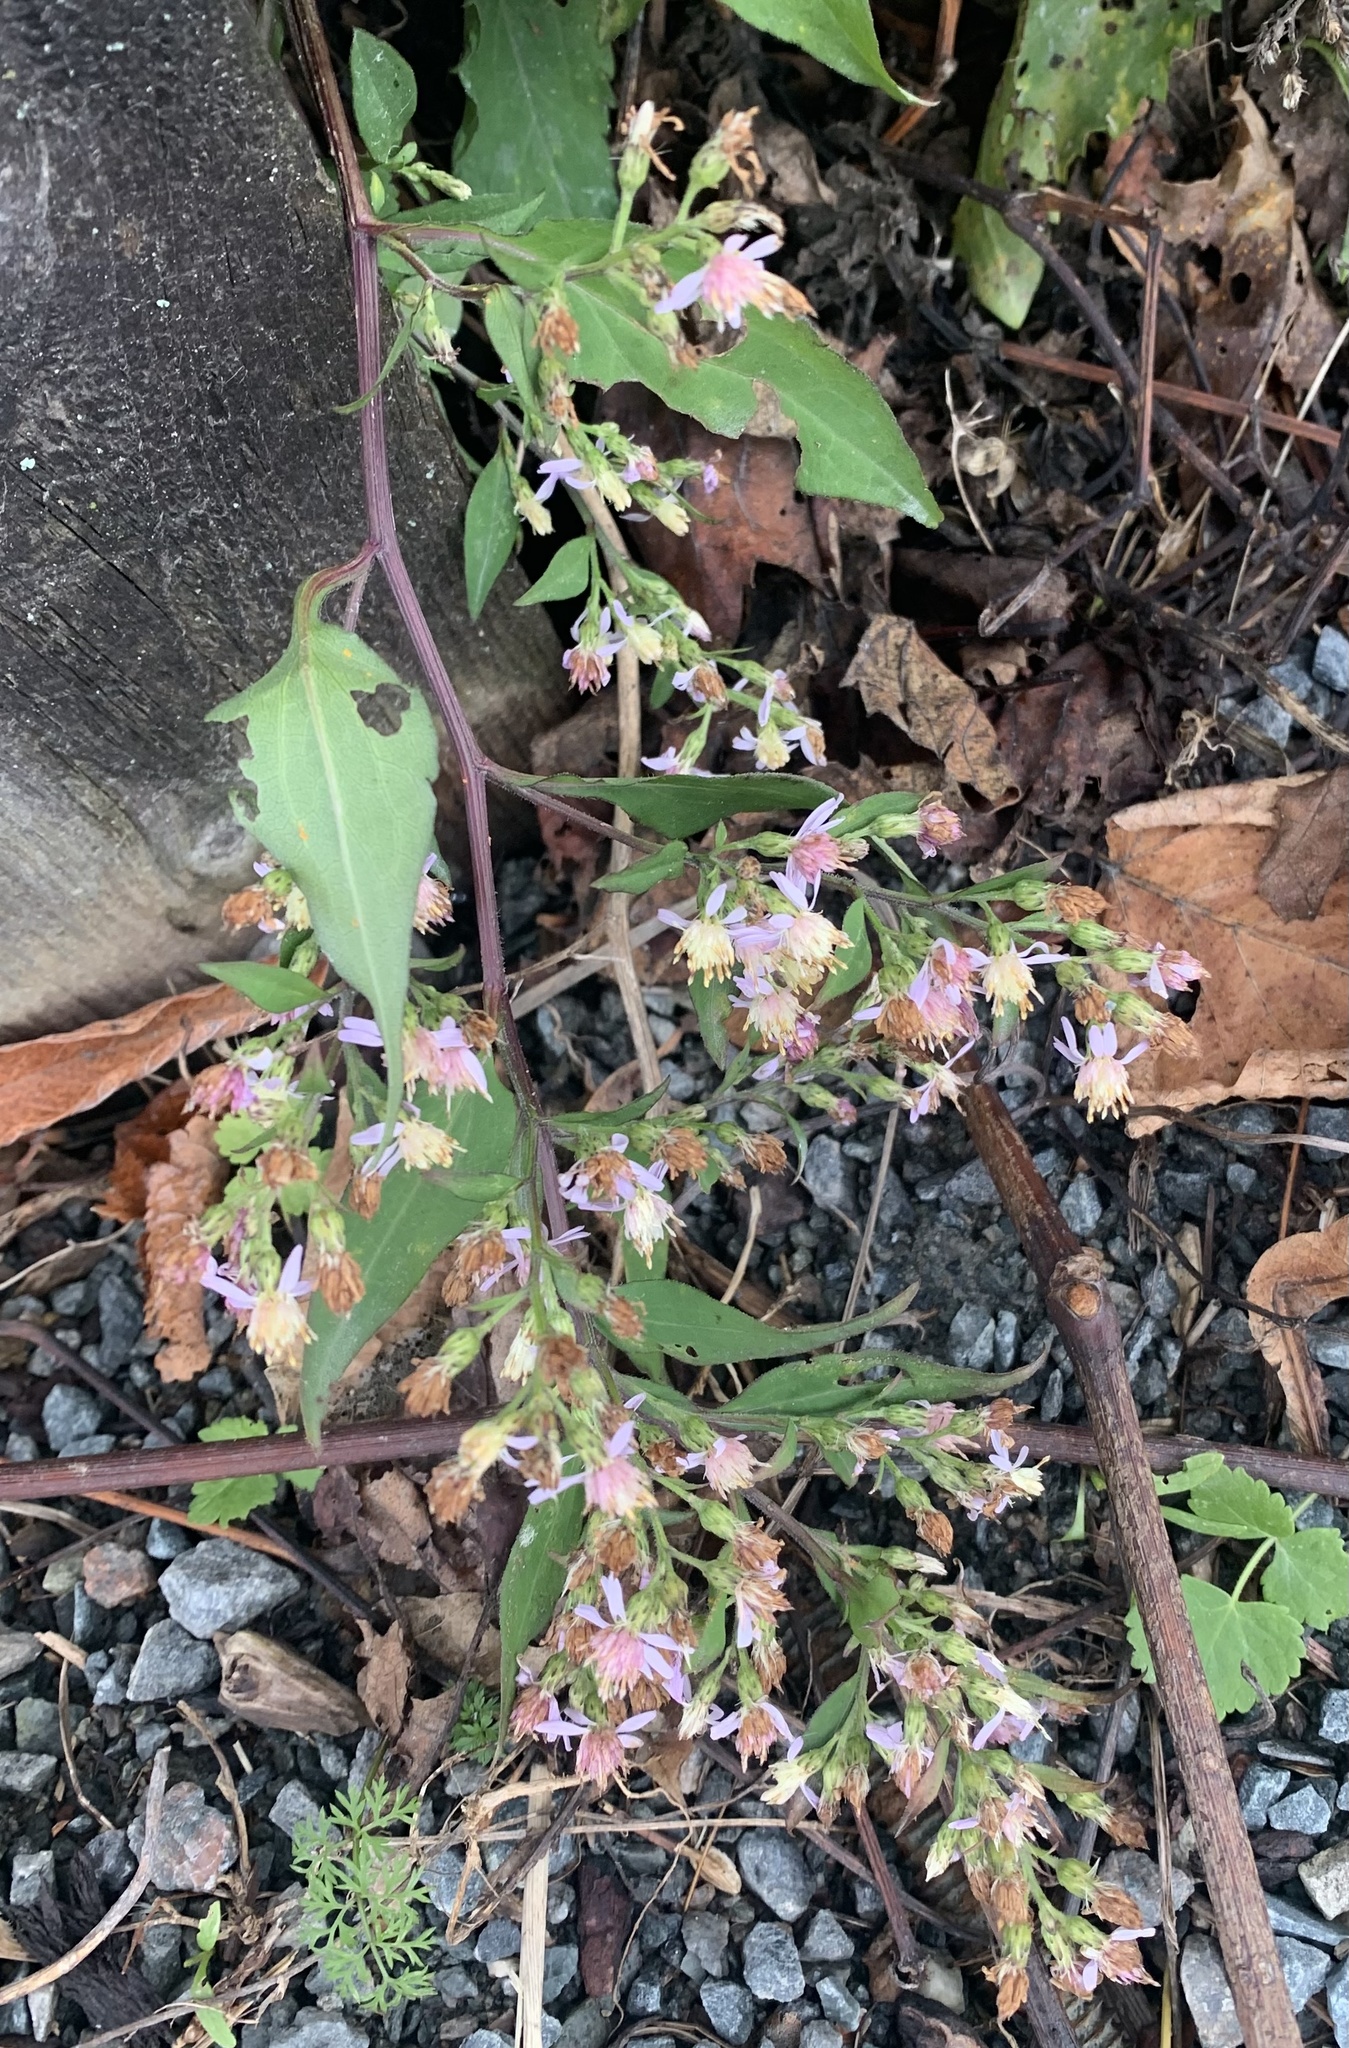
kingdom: Plantae
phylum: Tracheophyta
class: Magnoliopsida
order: Asterales
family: Asteraceae
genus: Symphyotrichum
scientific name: Symphyotrichum cordifolium
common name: Beeweed
